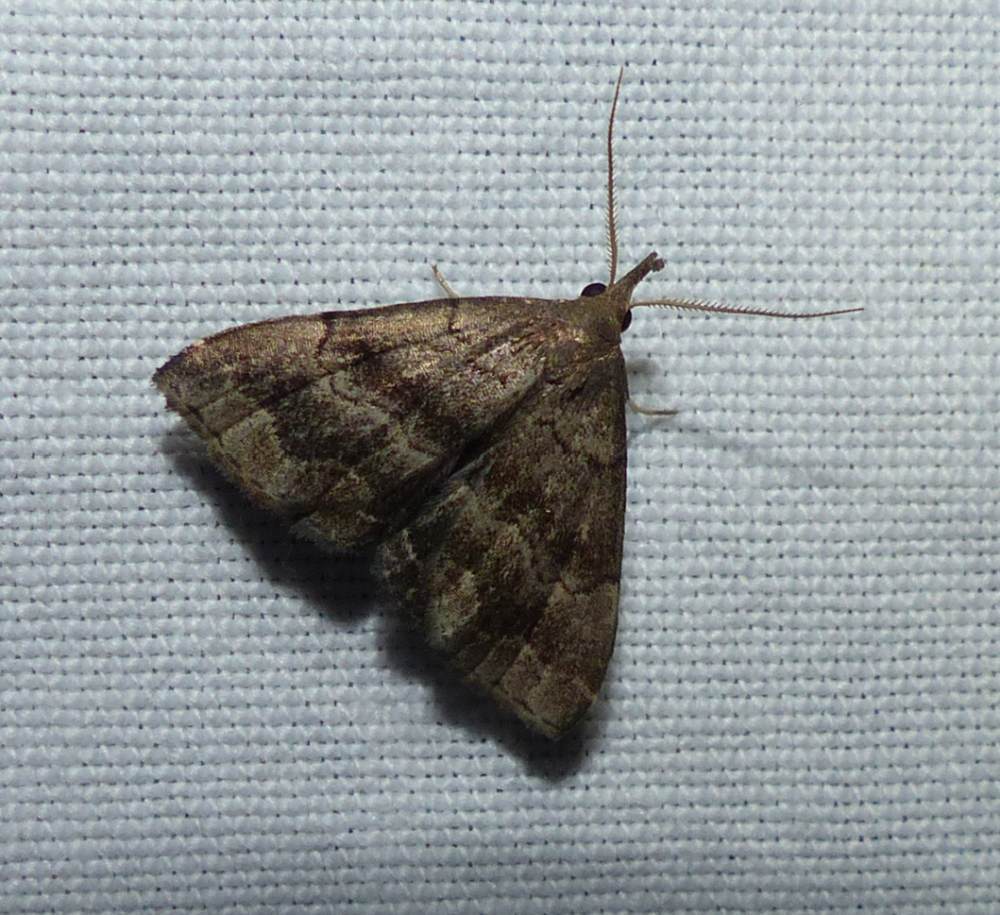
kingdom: Animalia
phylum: Arthropoda
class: Insecta
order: Lepidoptera
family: Erebidae
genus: Phalaenostola
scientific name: Phalaenostola larentioides
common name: Black-banded owlet
